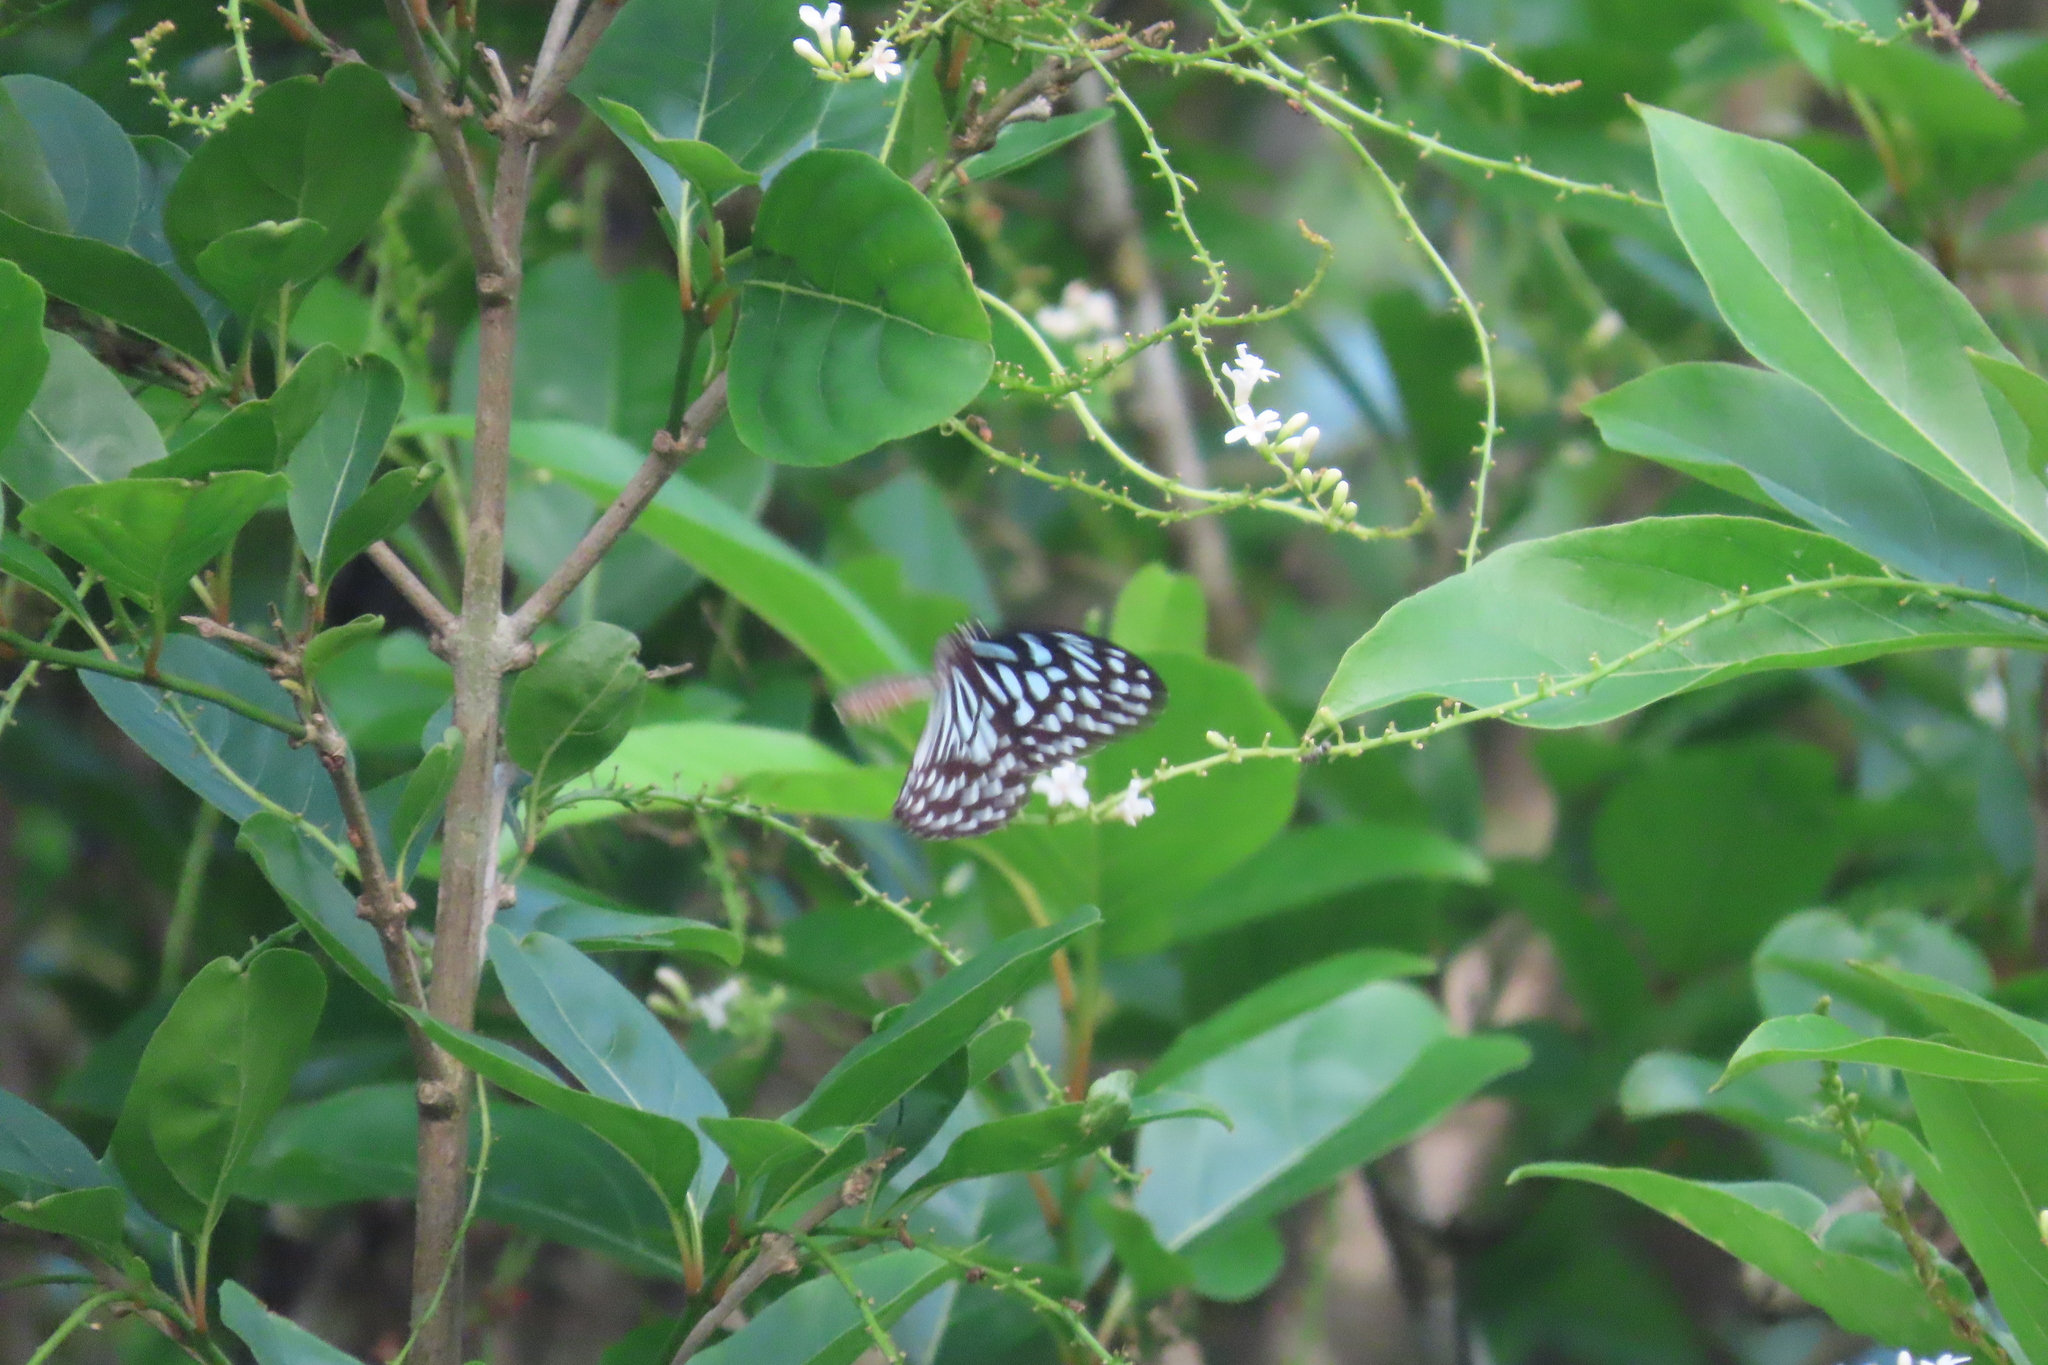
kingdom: Animalia
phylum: Arthropoda
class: Insecta
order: Lepidoptera
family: Nymphalidae
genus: Tirumala
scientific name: Tirumala septentrionis
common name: Dark blue tiger butterfly
